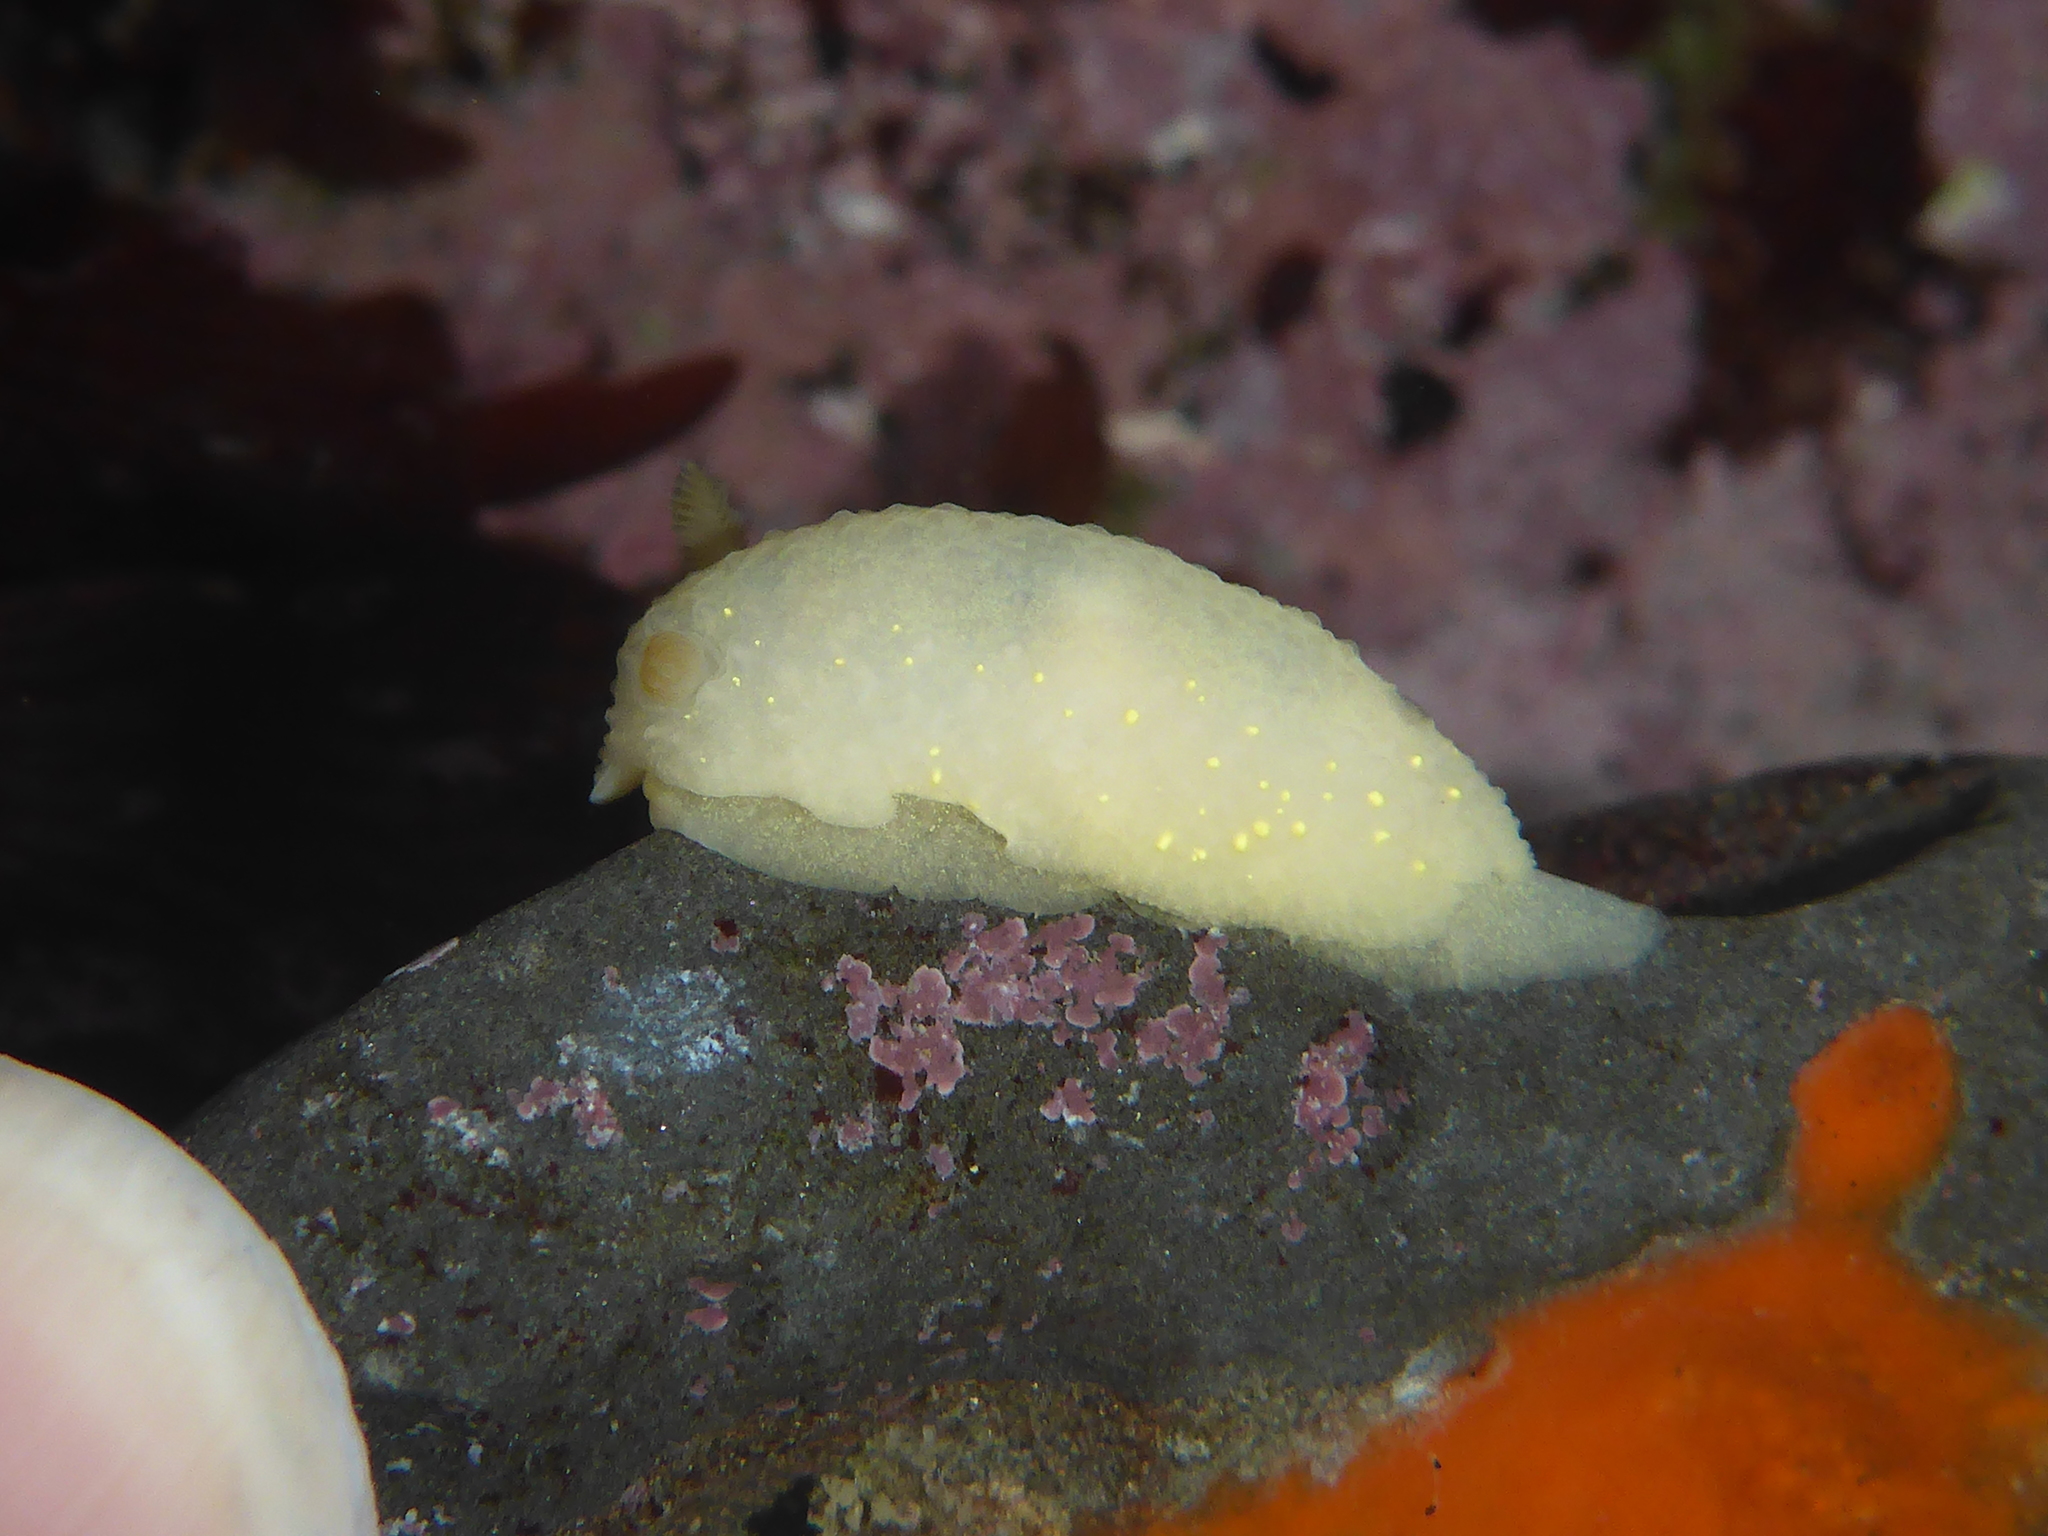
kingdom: Animalia
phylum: Mollusca
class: Gastropoda
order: Nudibranchia
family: Cadlinidae
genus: Cadlina
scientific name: Cadlina modesta
